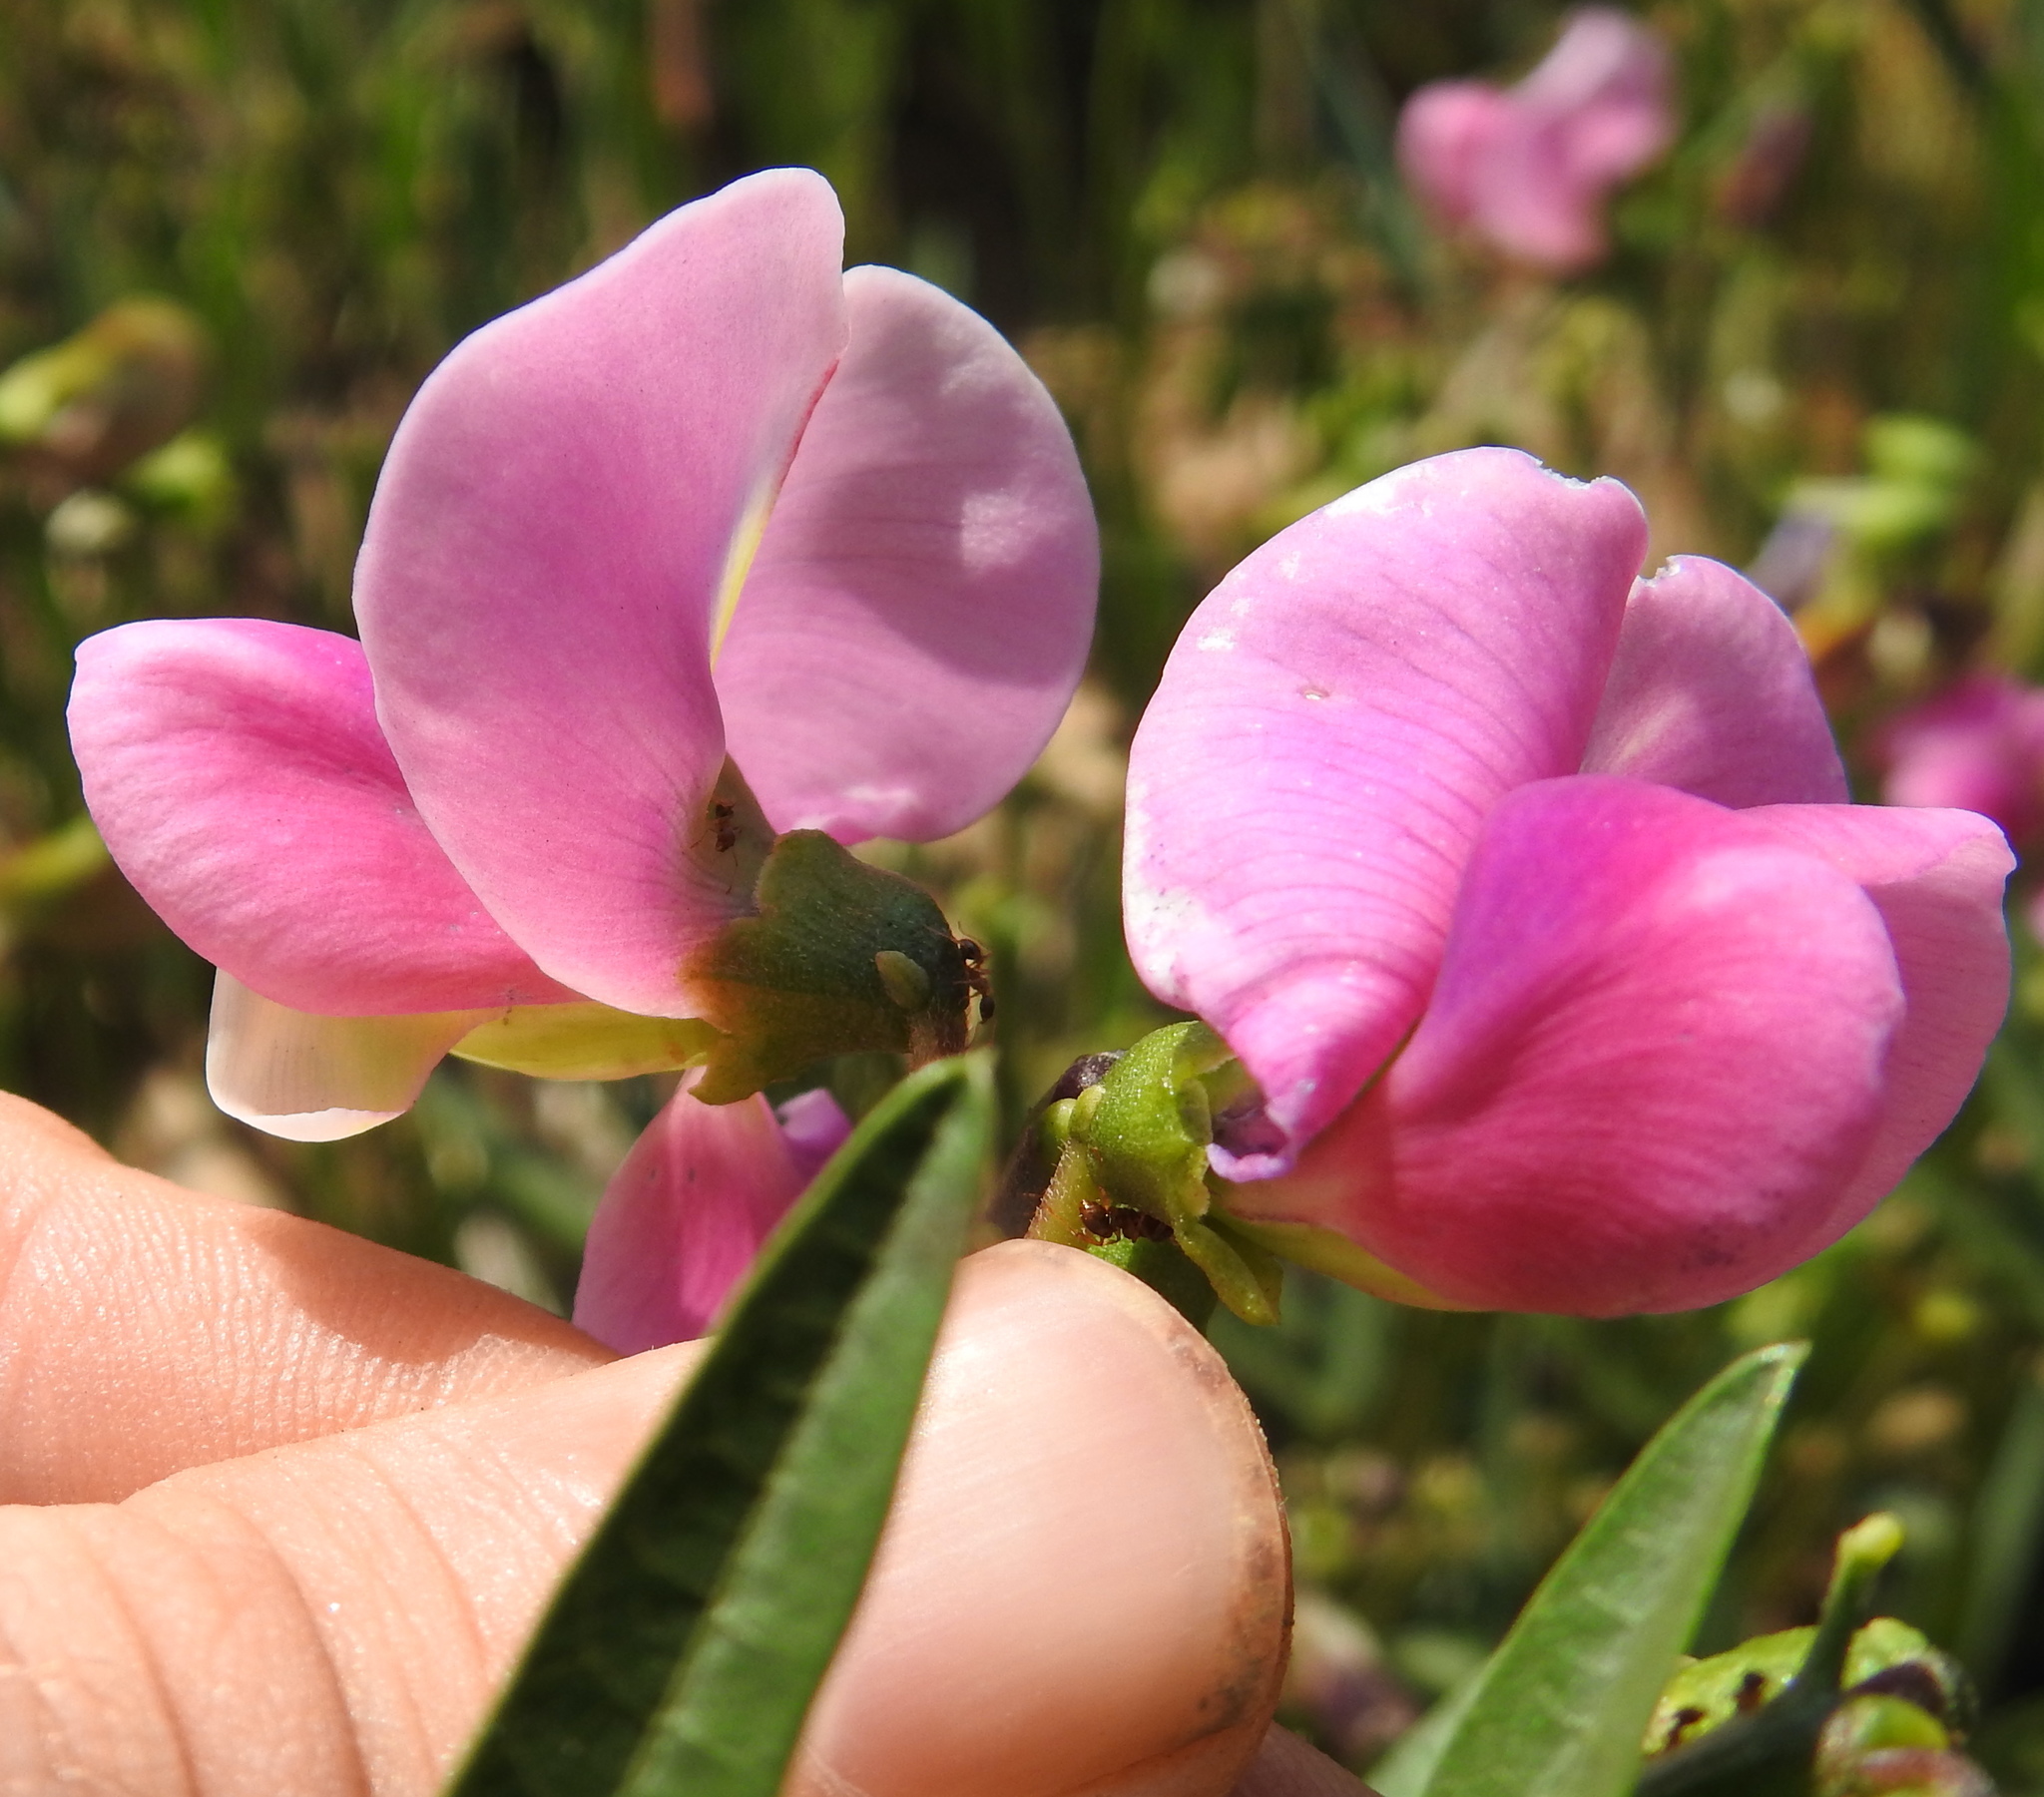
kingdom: Plantae
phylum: Tracheophyta
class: Magnoliopsida
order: Fabales
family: Fabaceae
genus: Sphenostylis
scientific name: Sphenostylis angustifolia
